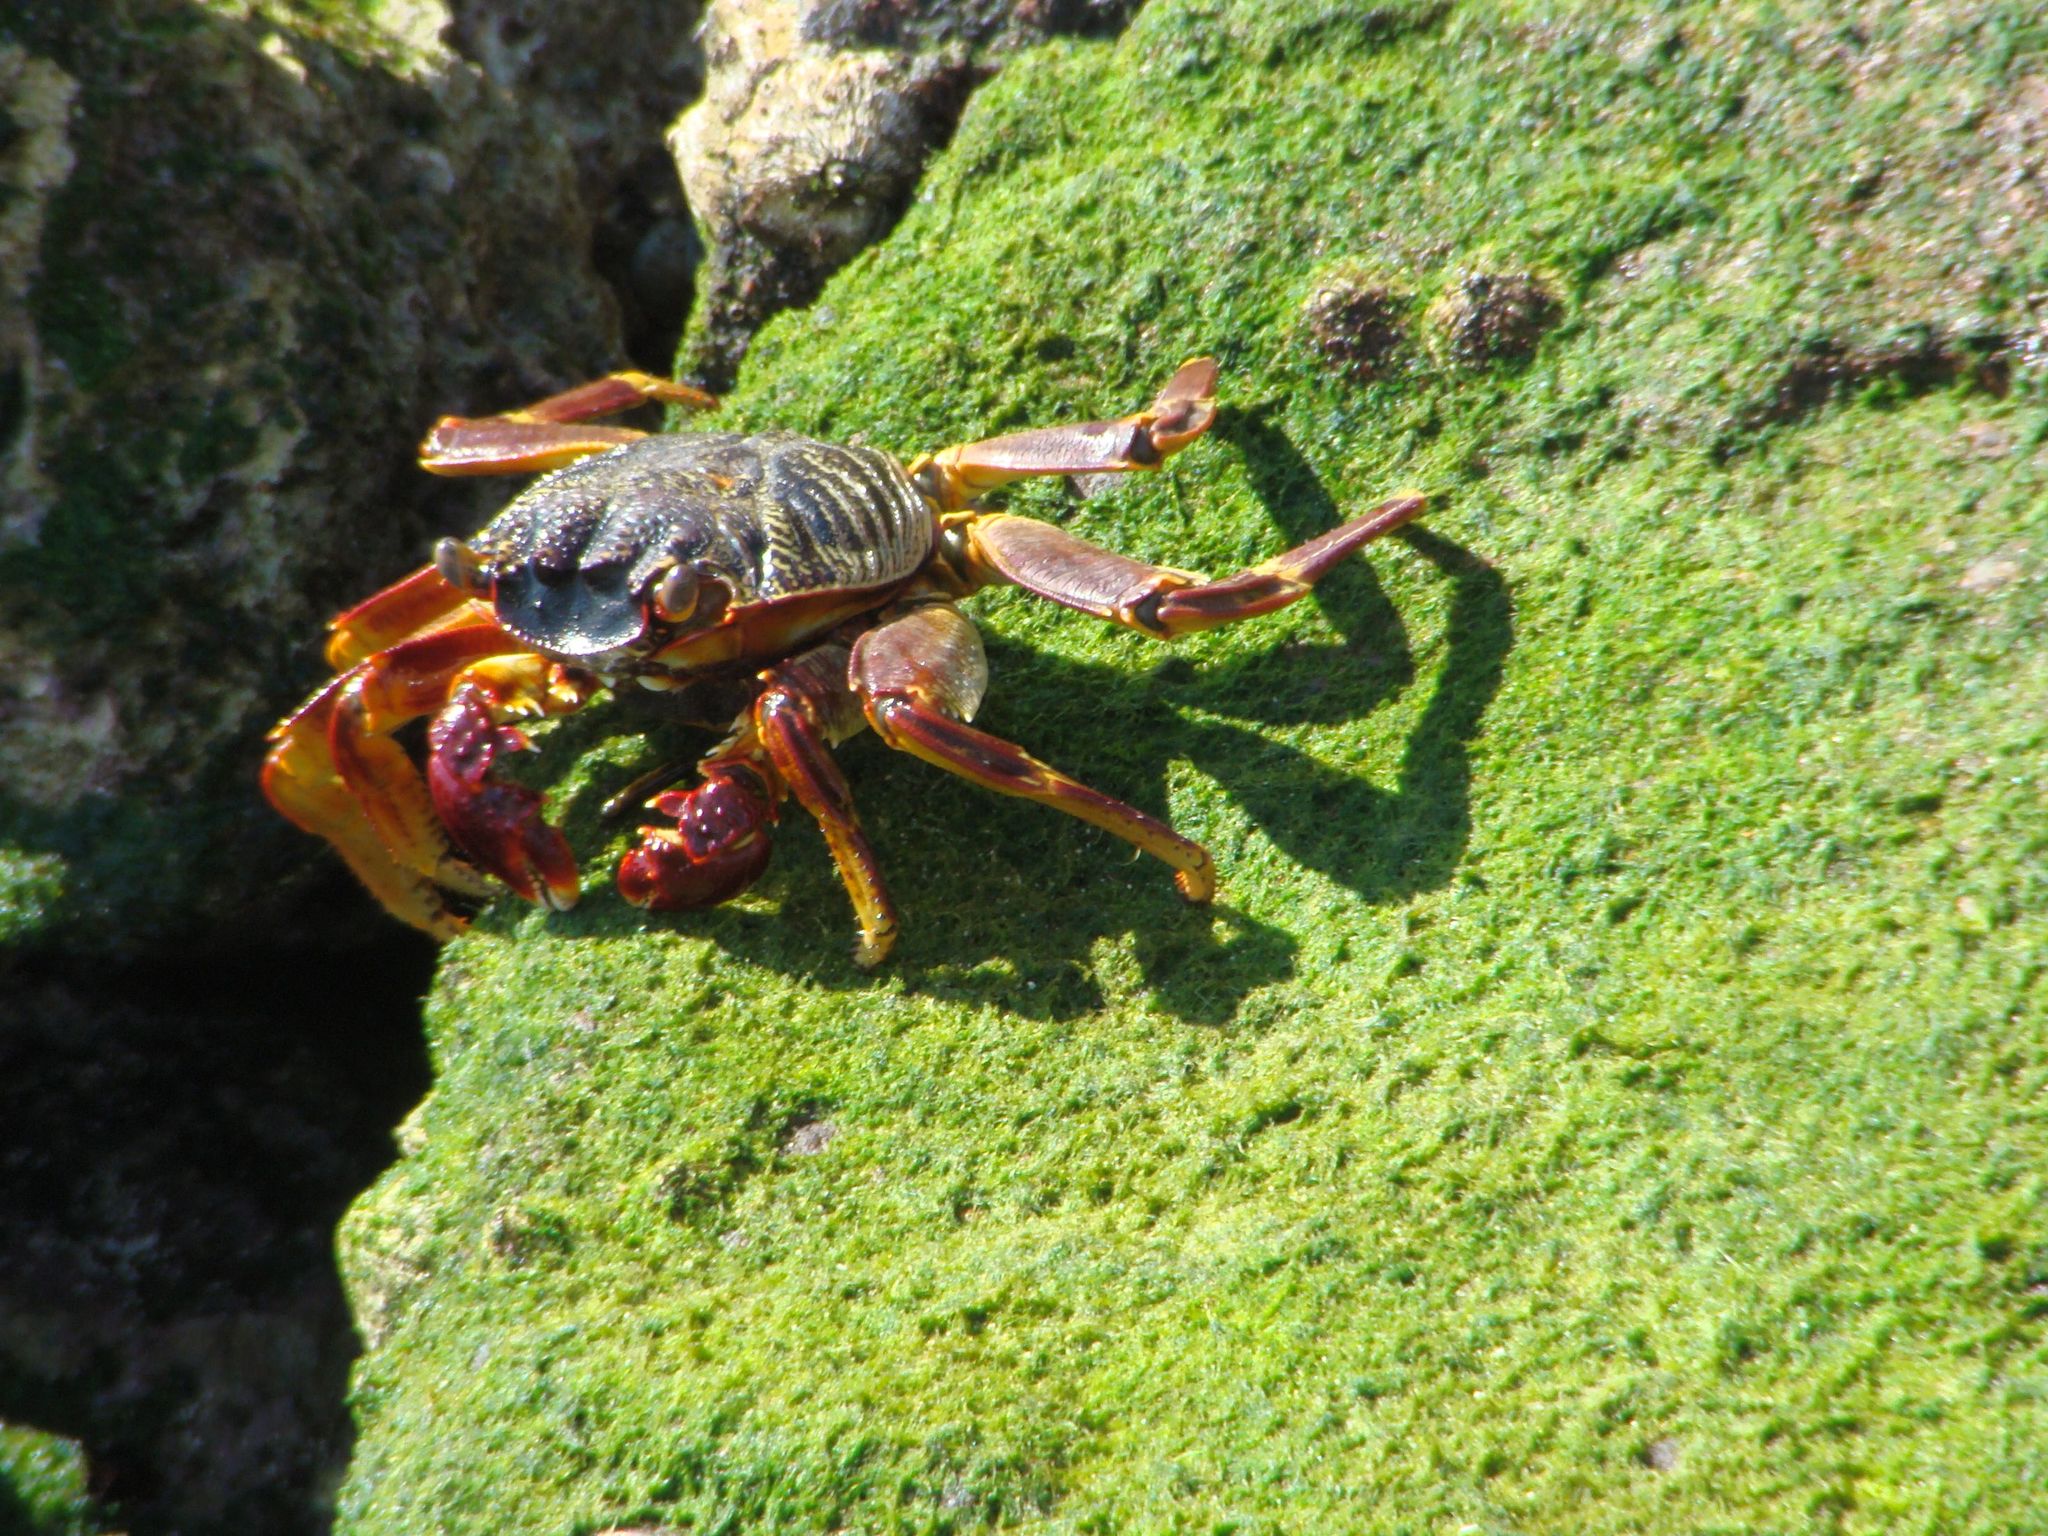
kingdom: Animalia
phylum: Arthropoda
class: Malacostraca
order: Decapoda
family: Grapsidae
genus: Grapsus
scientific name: Grapsus albolineatus
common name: Mottled lightfoot crab
